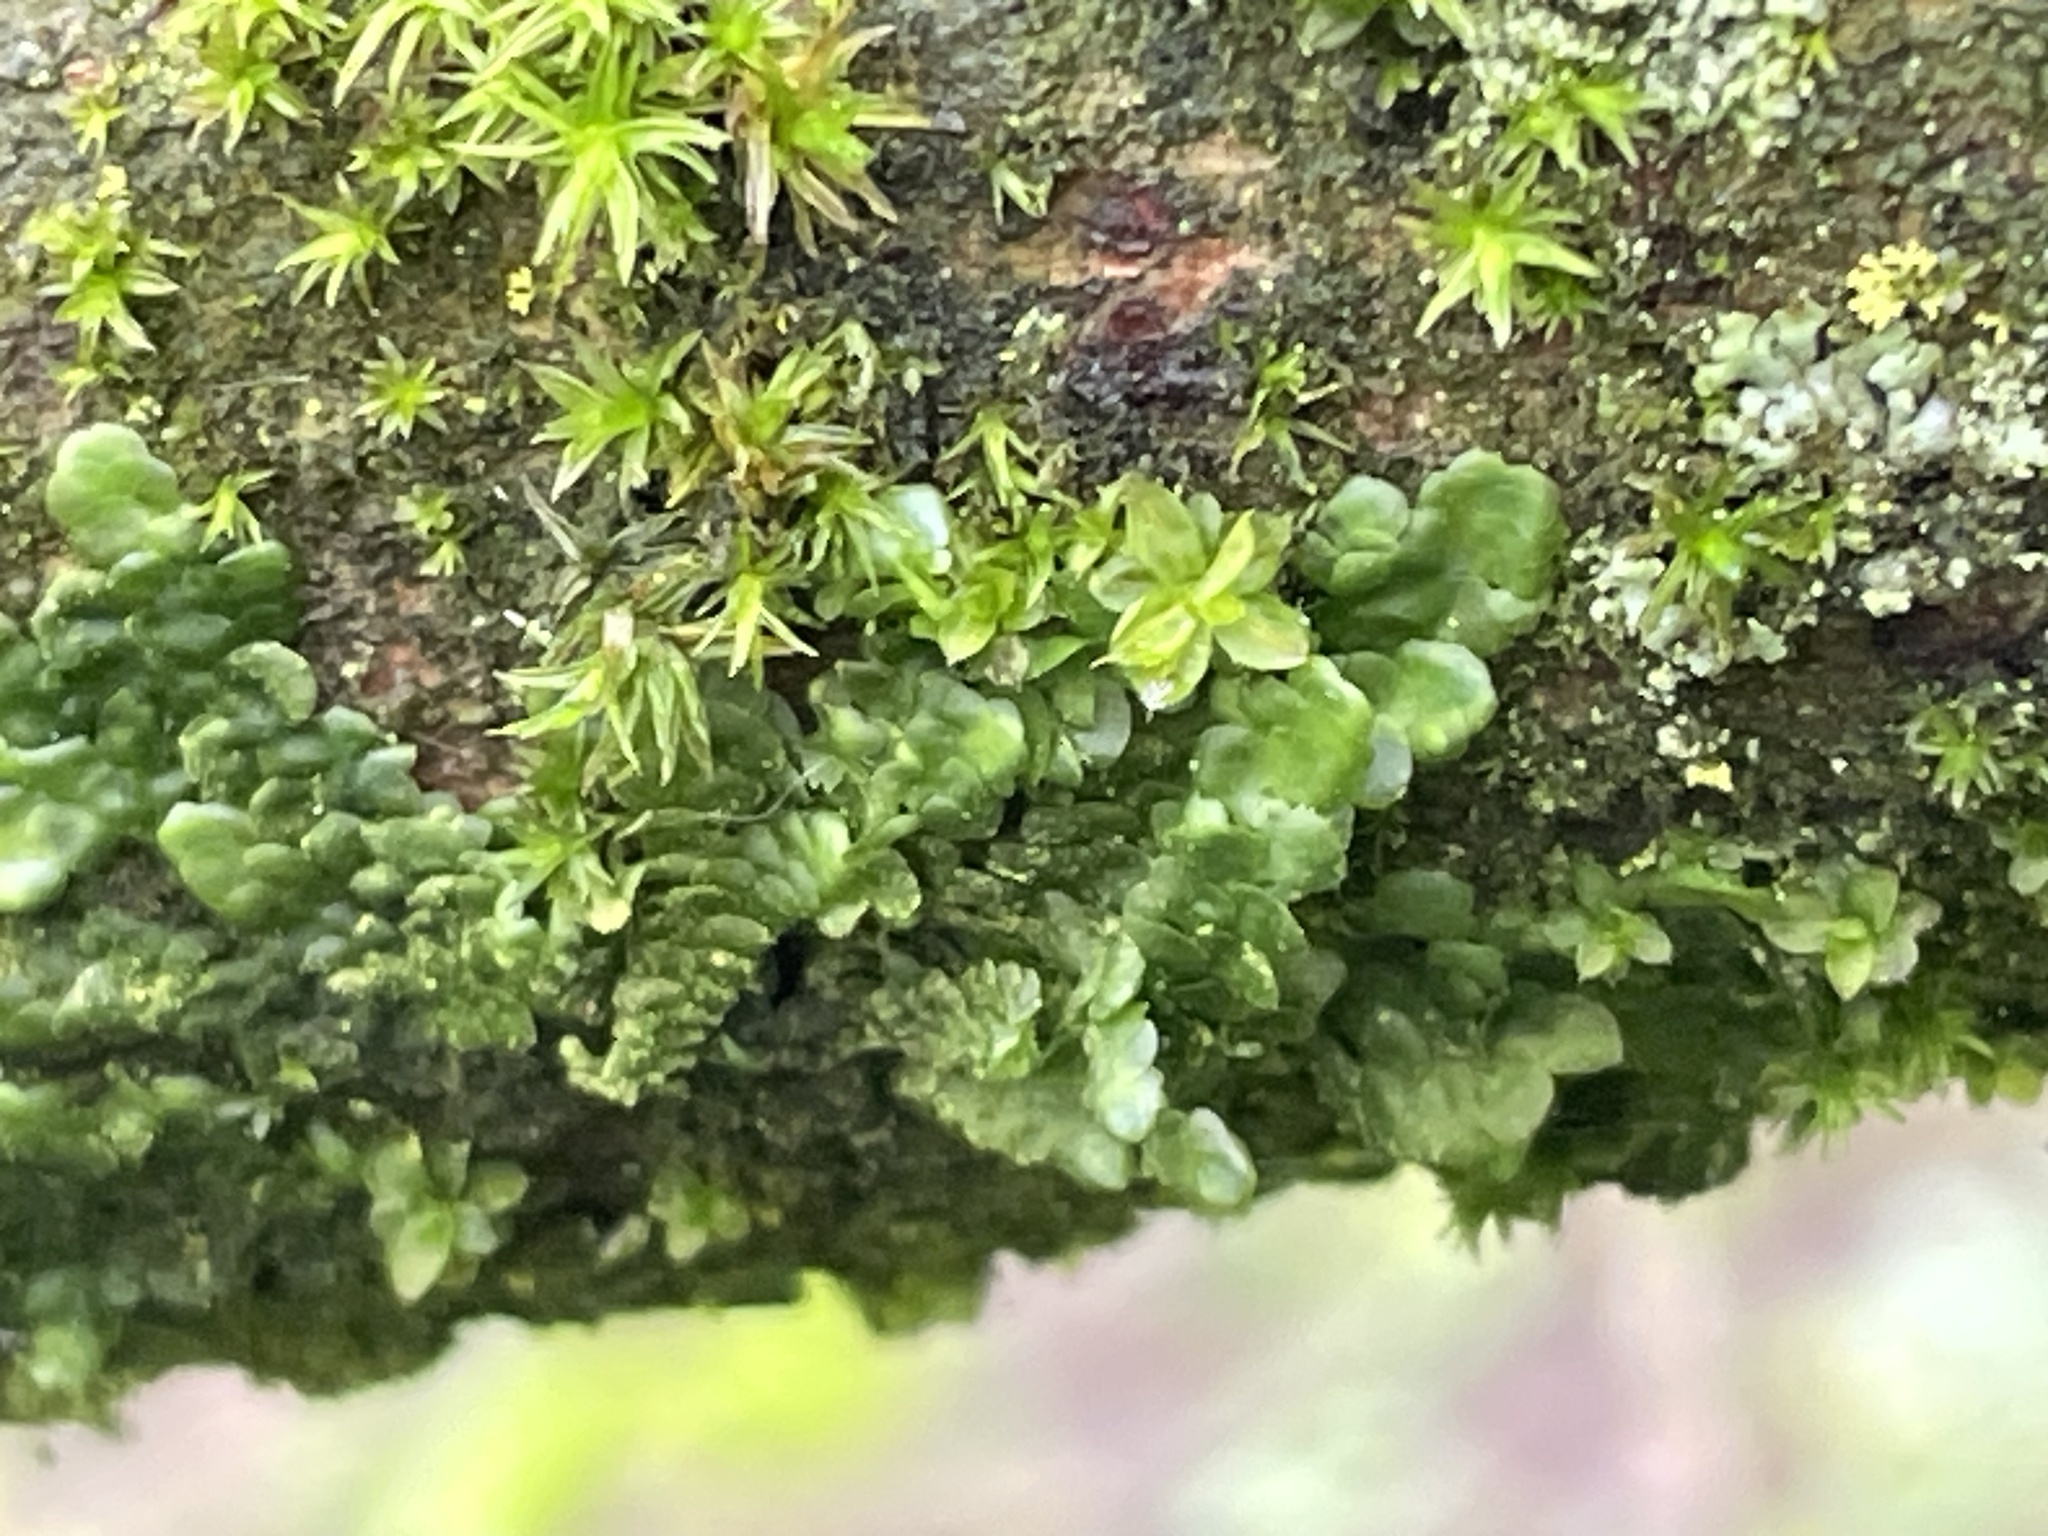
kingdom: Plantae
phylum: Marchantiophyta
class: Jungermanniopsida
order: Porellales
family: Radulaceae
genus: Radula
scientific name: Radula complanata
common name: Flat-leaved scalewort
